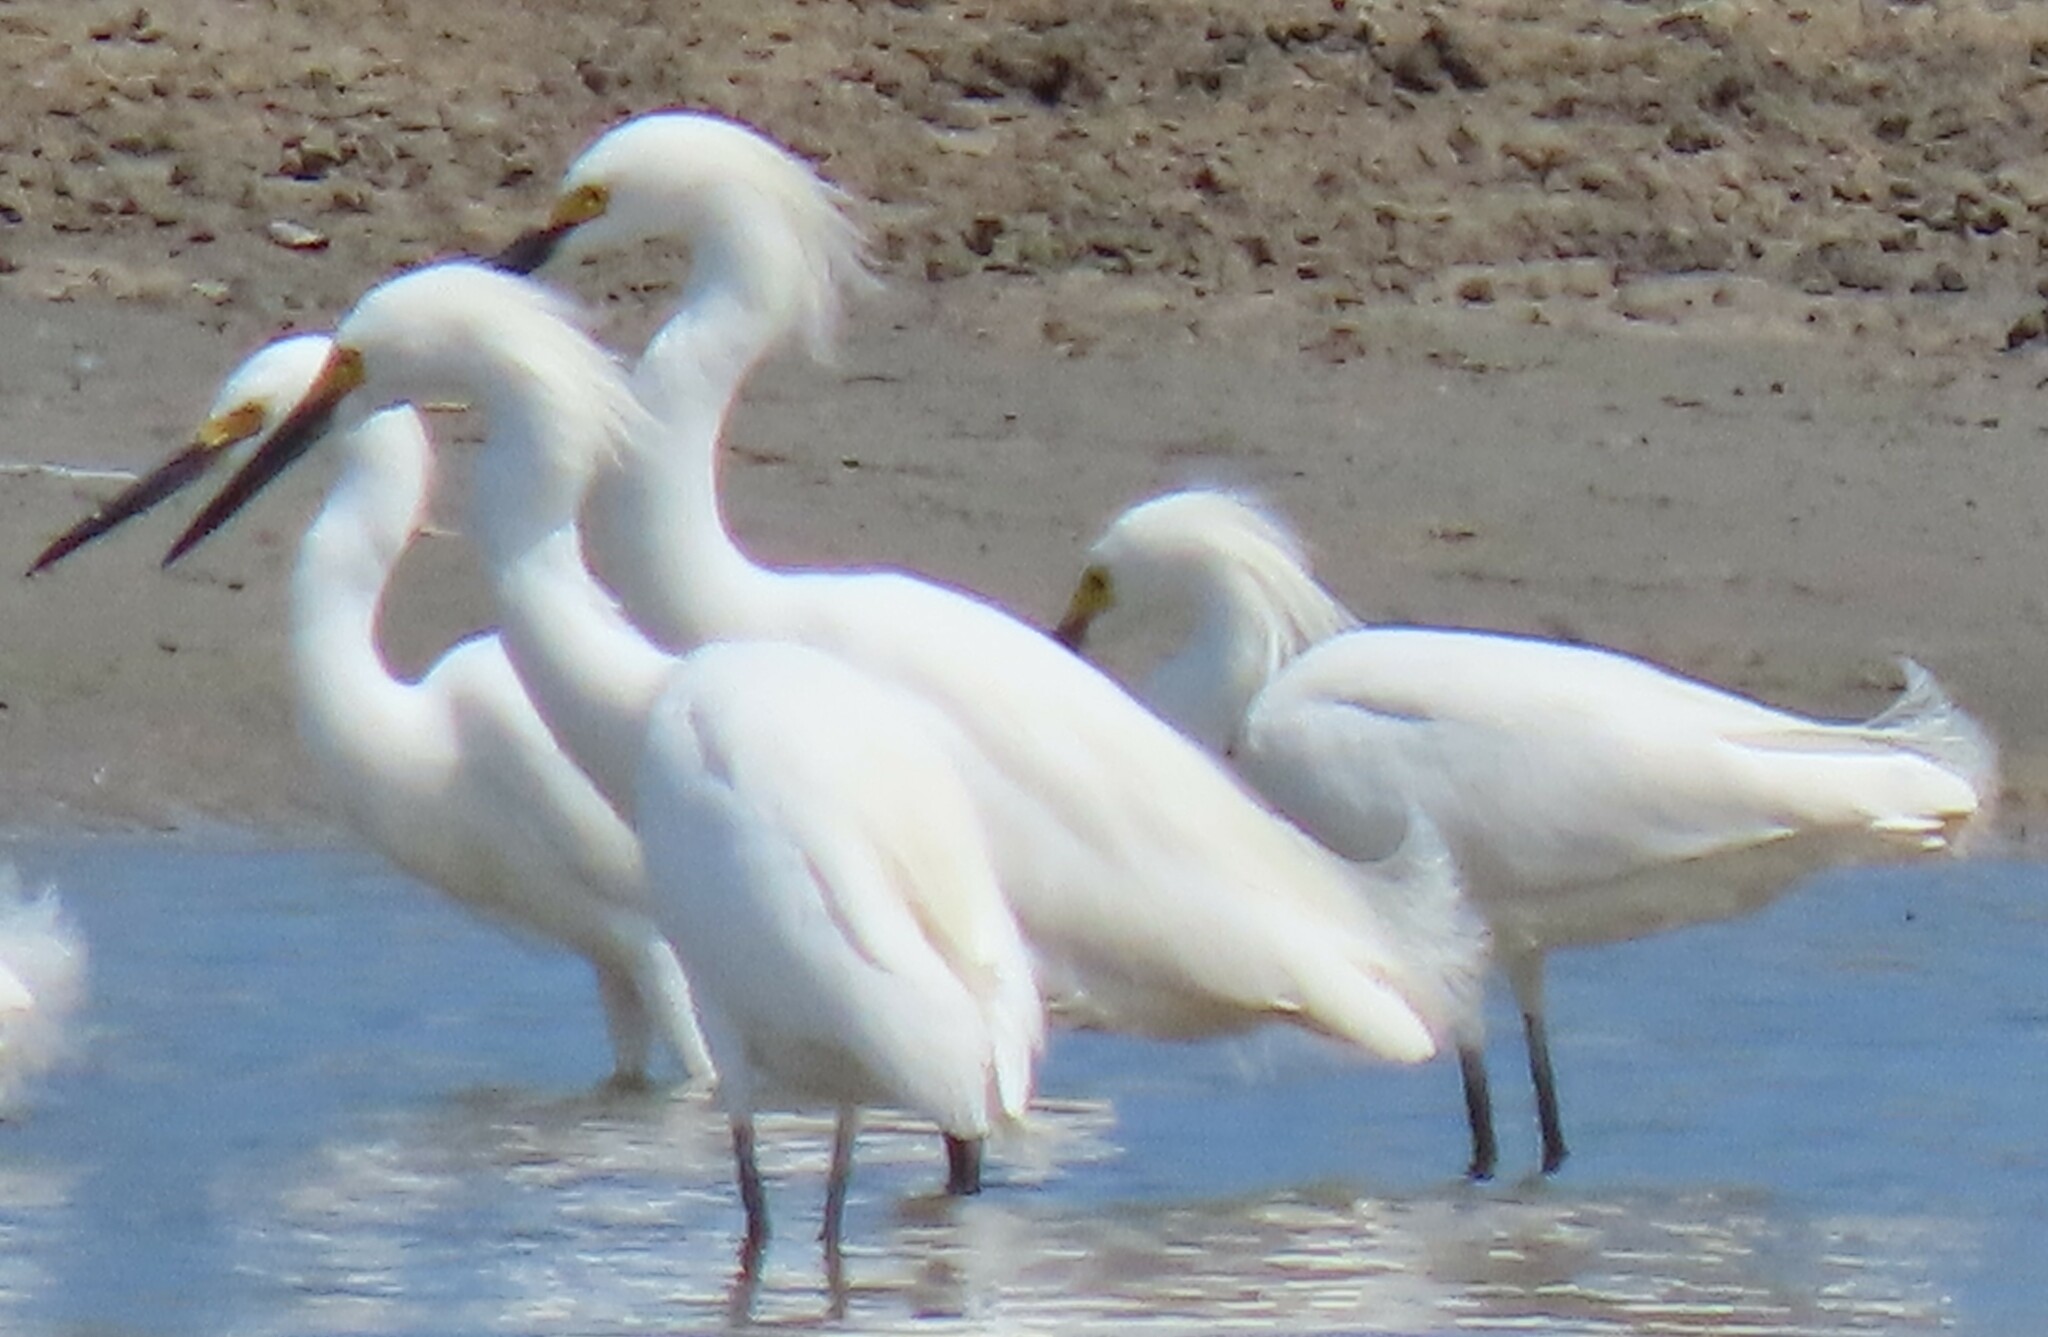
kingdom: Animalia
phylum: Chordata
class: Aves
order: Pelecaniformes
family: Ardeidae
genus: Egretta
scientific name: Egretta thula
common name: Snowy egret
